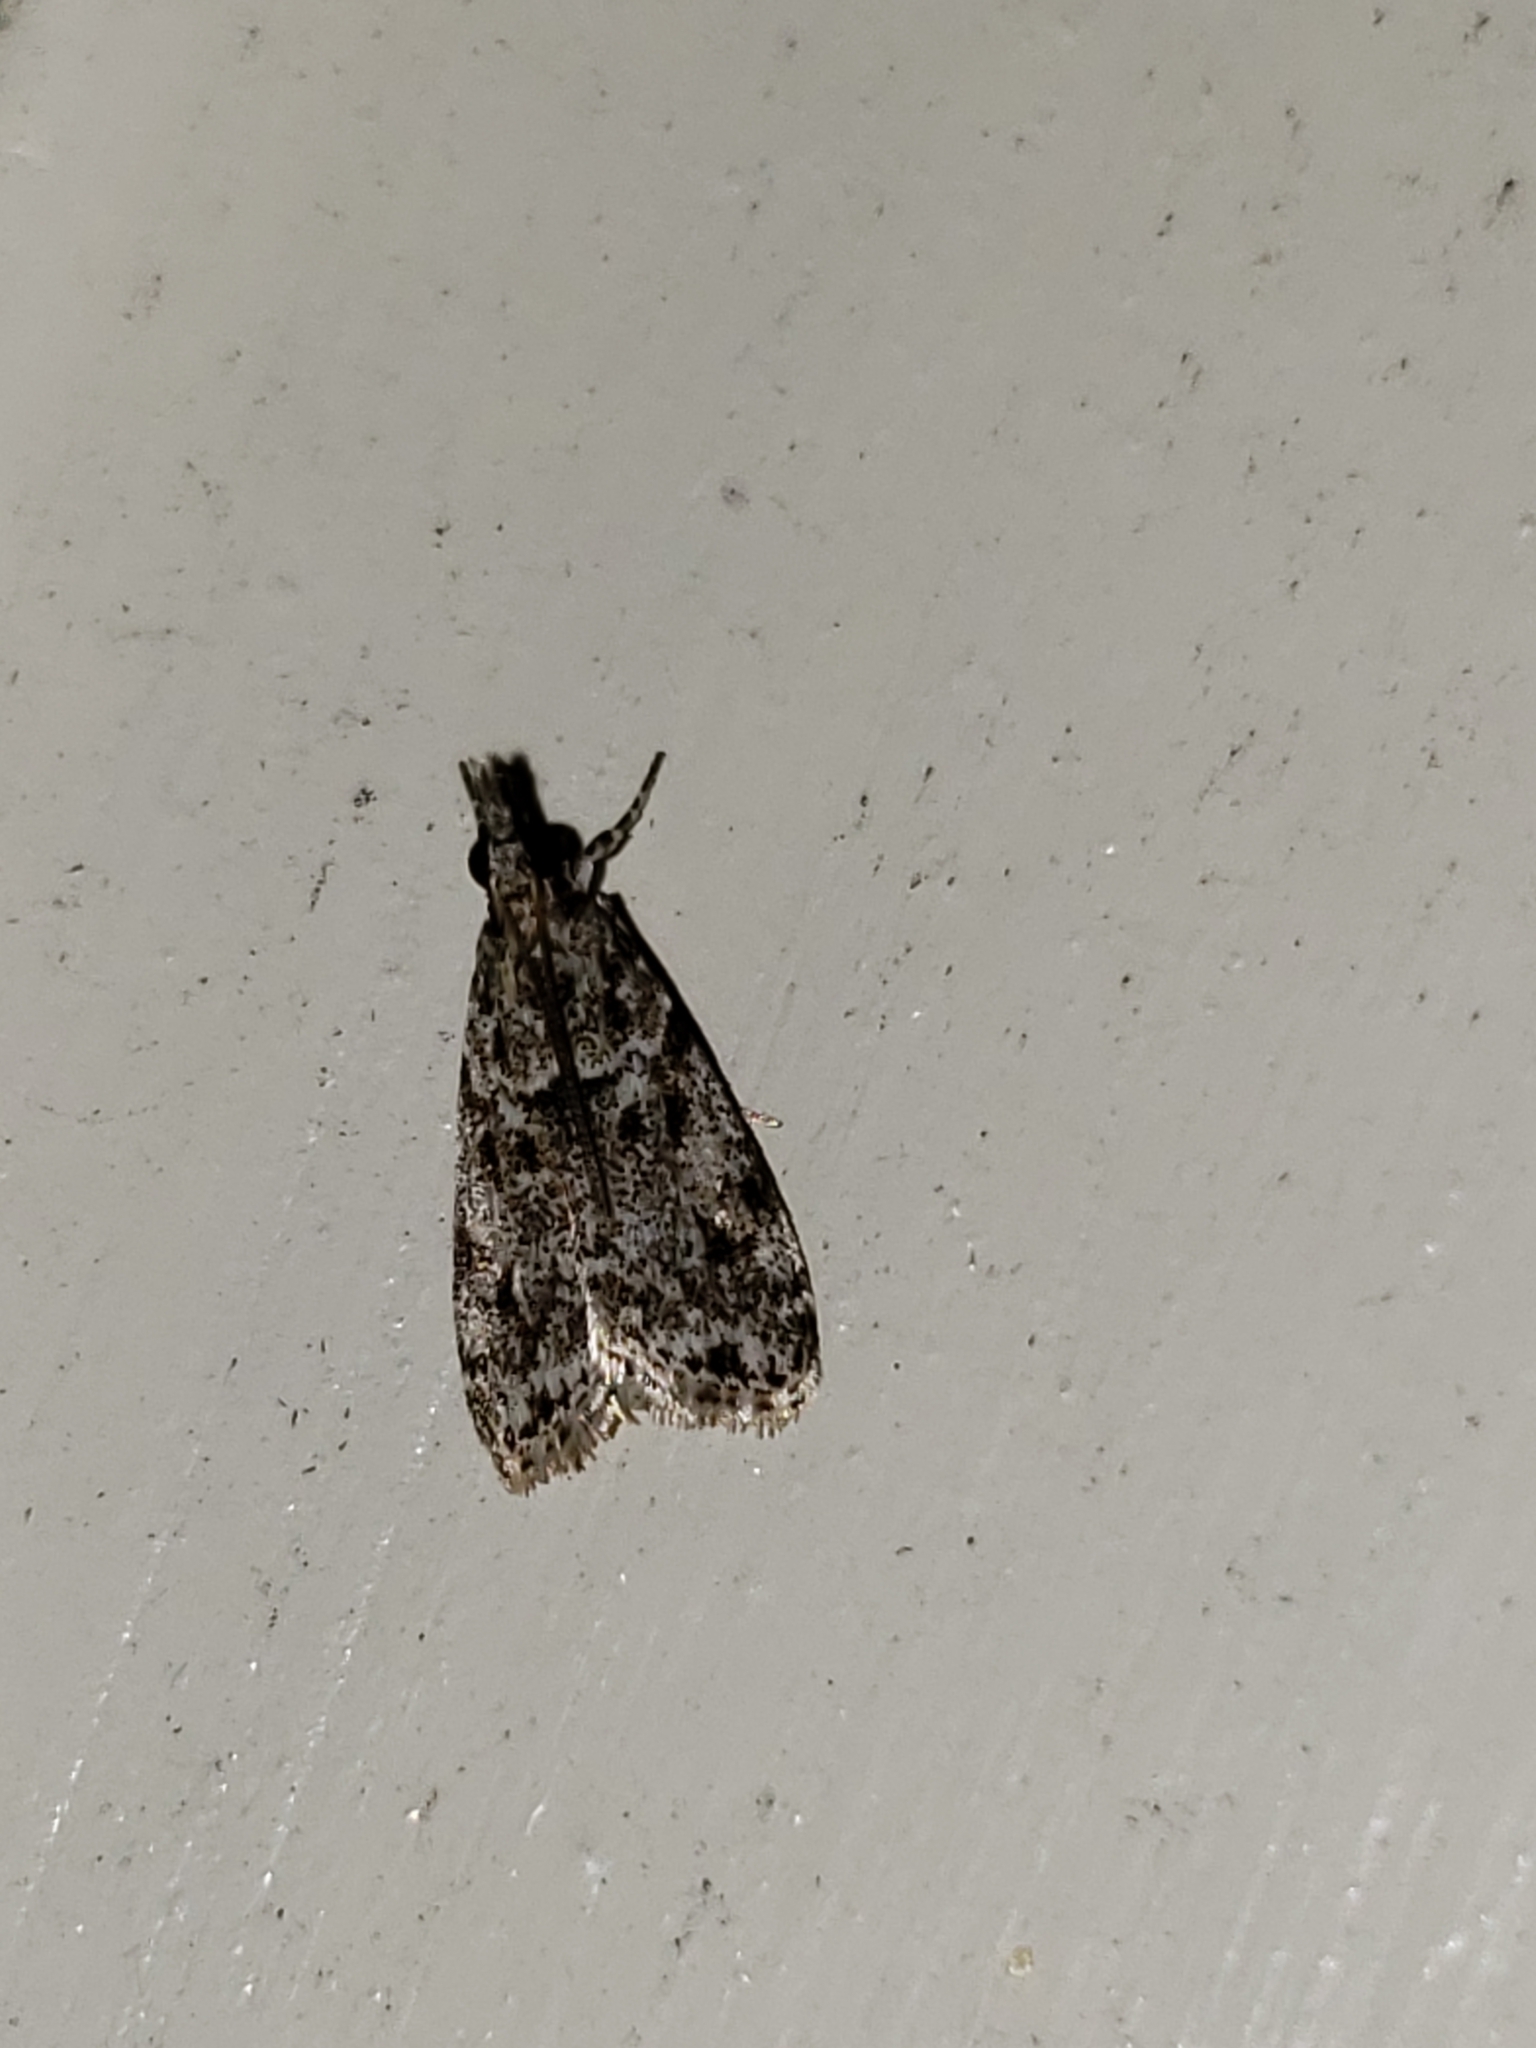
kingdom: Animalia
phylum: Arthropoda
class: Insecta
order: Lepidoptera
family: Crambidae
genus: Eudonia
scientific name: Eudonia heterosalis
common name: Mcdunnough's eudonia
